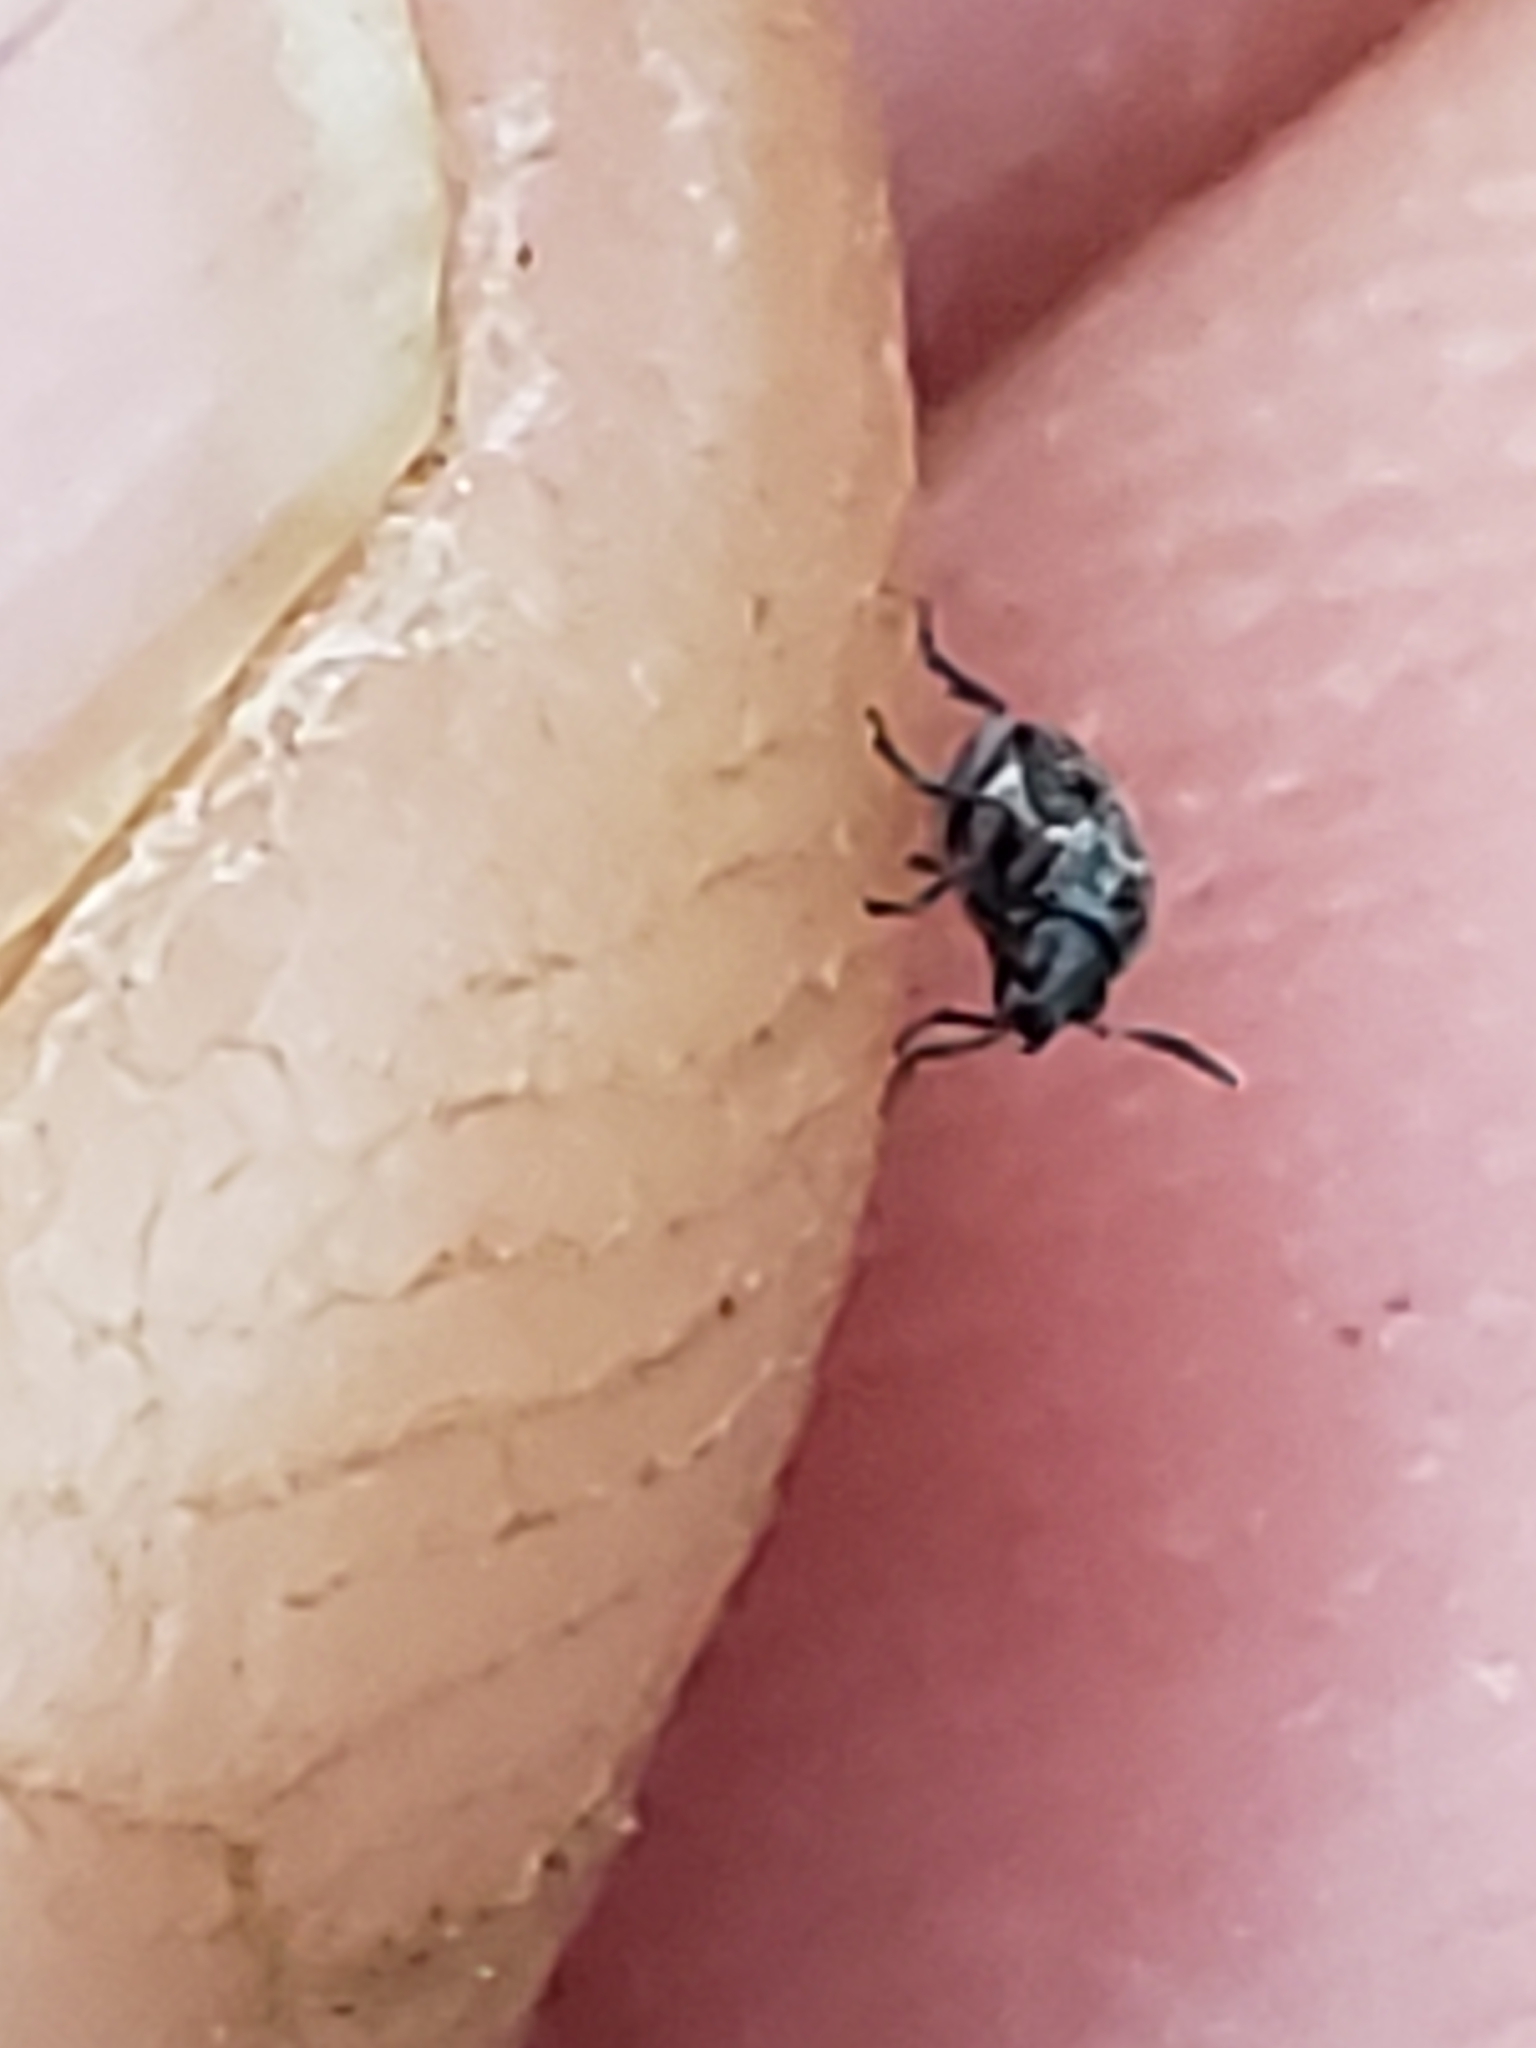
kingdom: Animalia
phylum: Arthropoda
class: Insecta
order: Coleoptera
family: Chrysomelidae
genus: Acanthoscelides
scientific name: Acanthoscelides alboscutellatus
